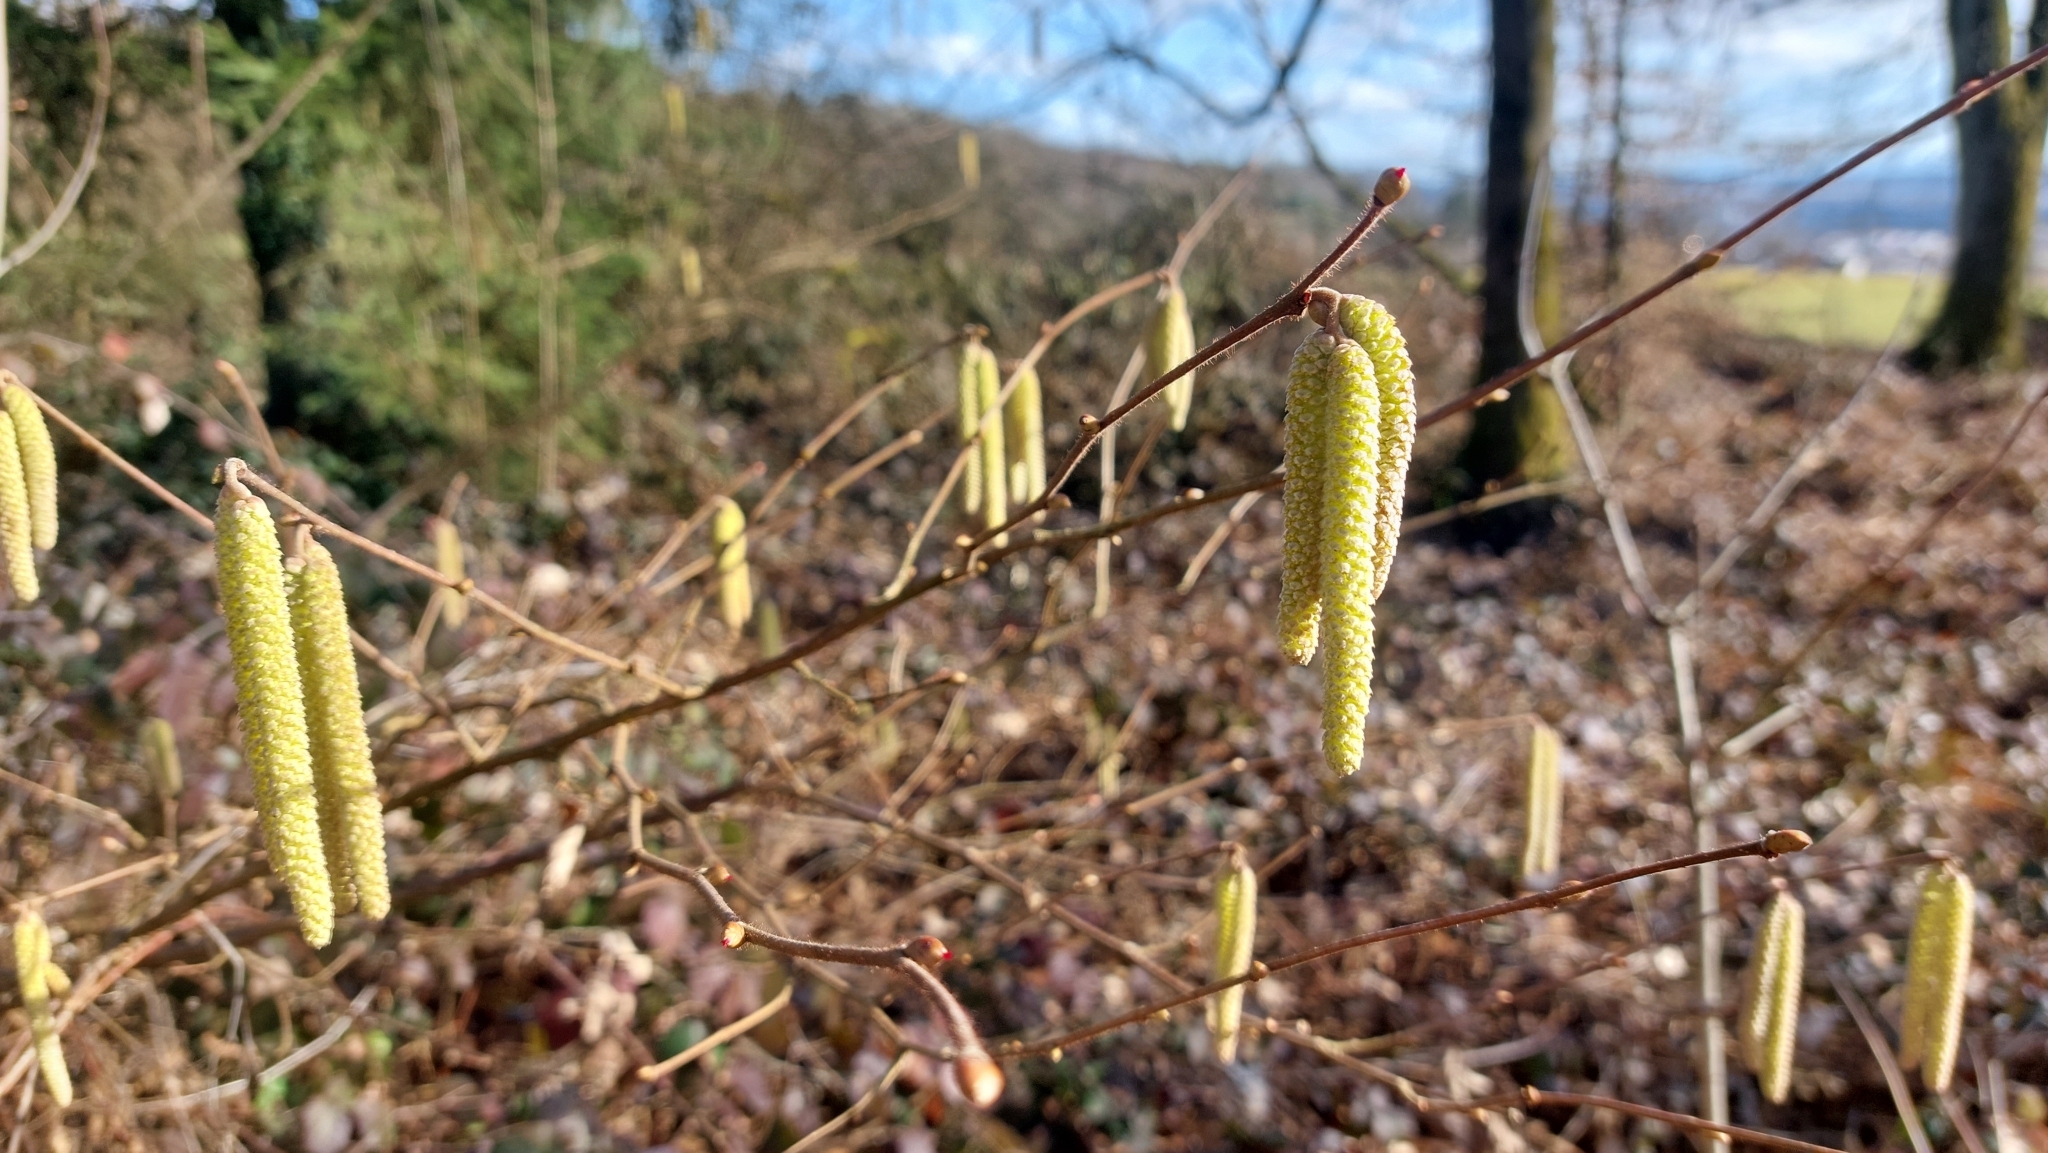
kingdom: Plantae
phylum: Tracheophyta
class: Magnoliopsida
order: Fagales
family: Betulaceae
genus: Corylus
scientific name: Corylus avellana
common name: European hazel
